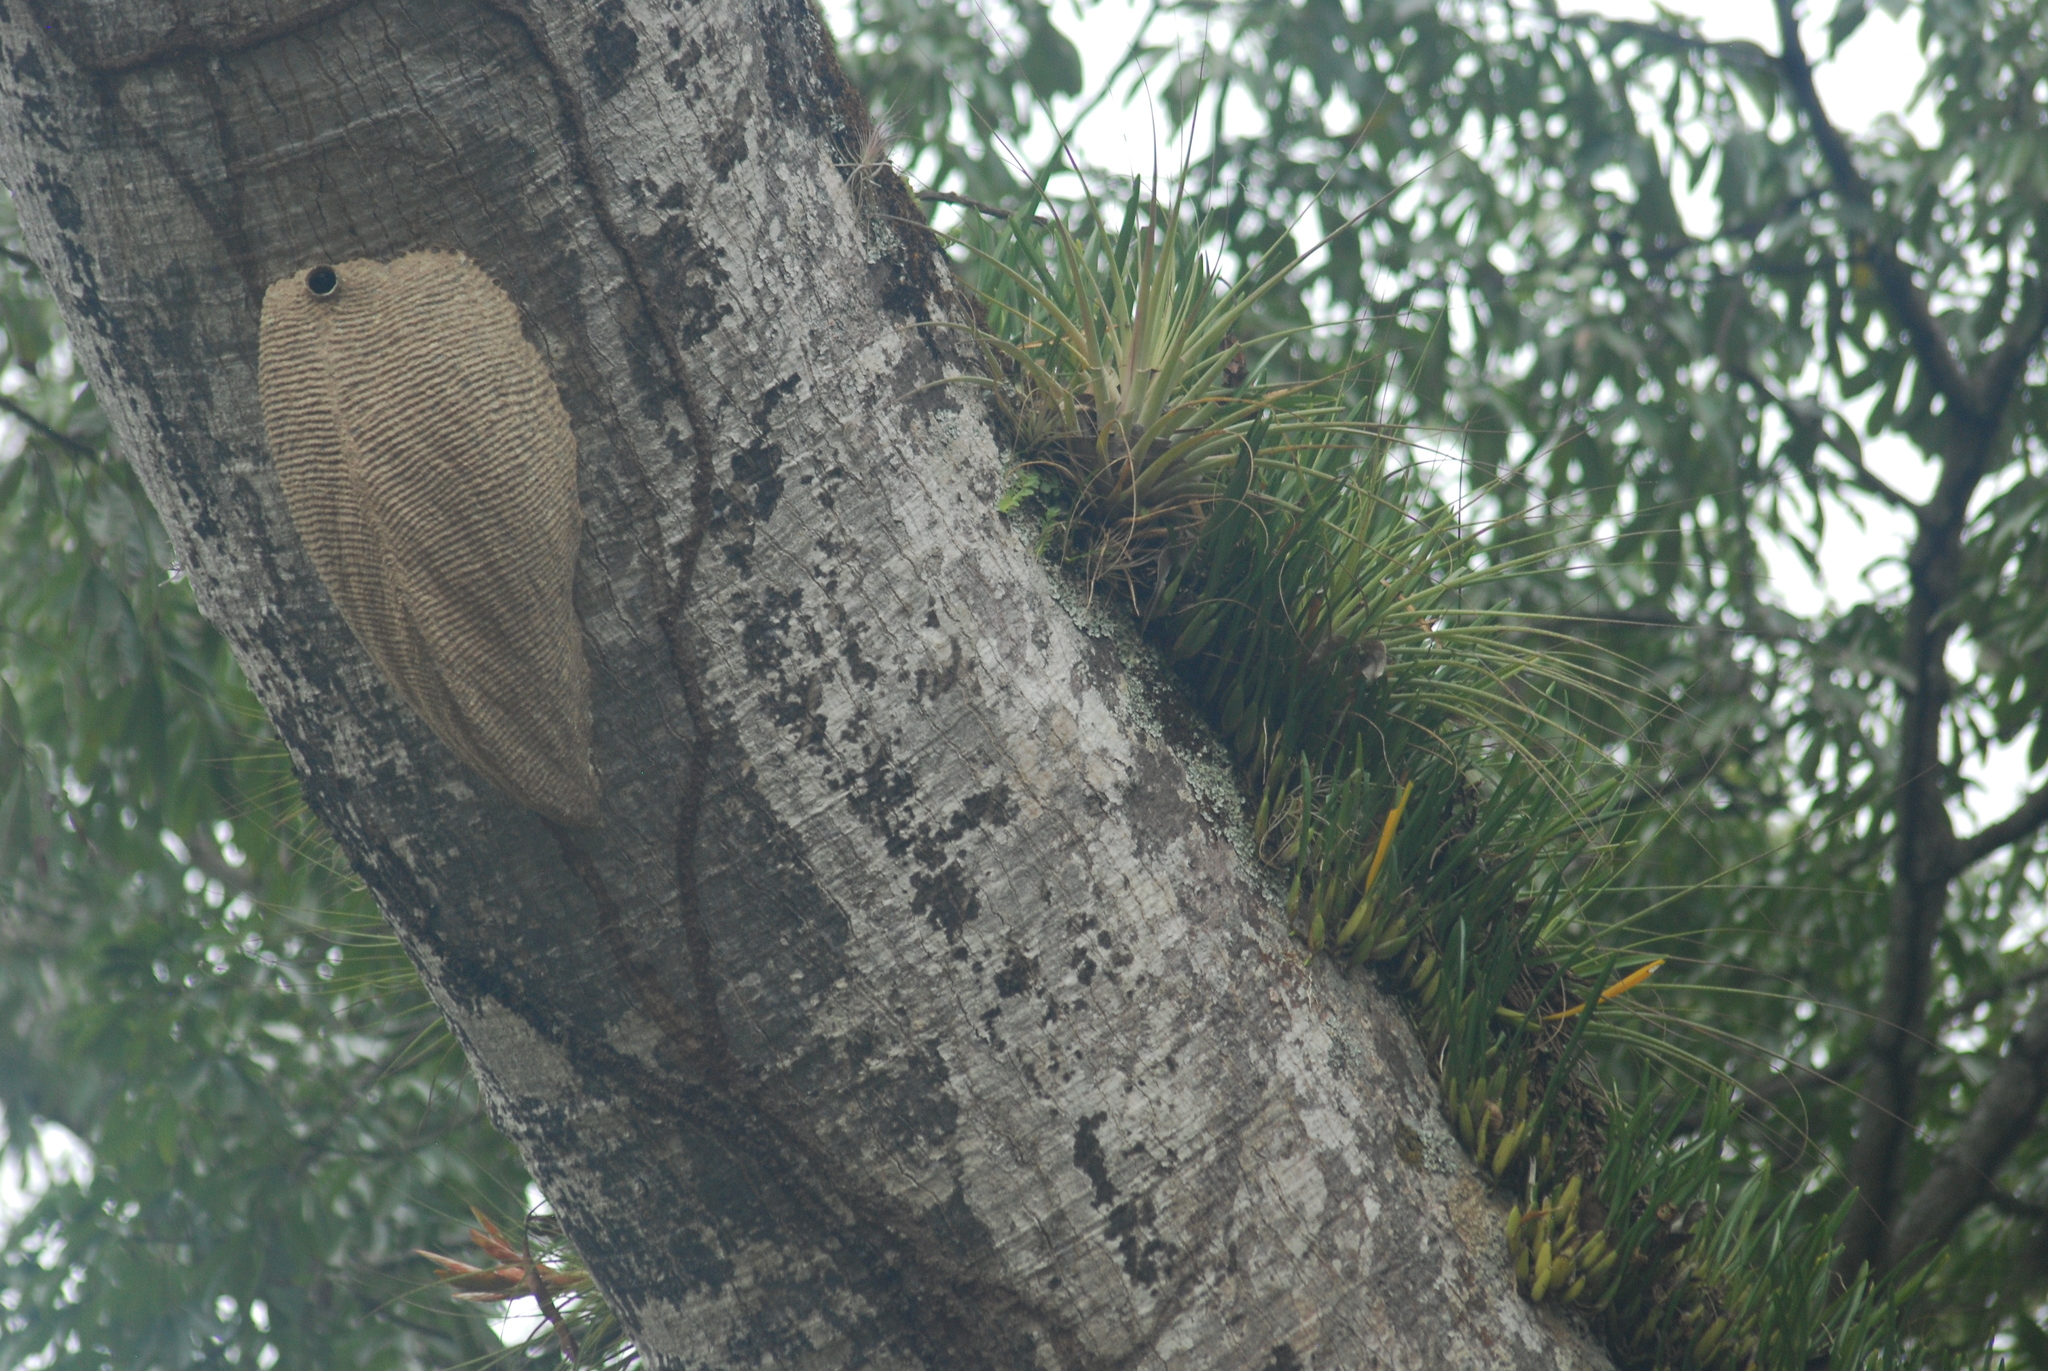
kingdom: Animalia
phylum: Arthropoda
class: Insecta
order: Hymenoptera
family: Vespidae
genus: Synoeca
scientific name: Synoeca septentrionalis
